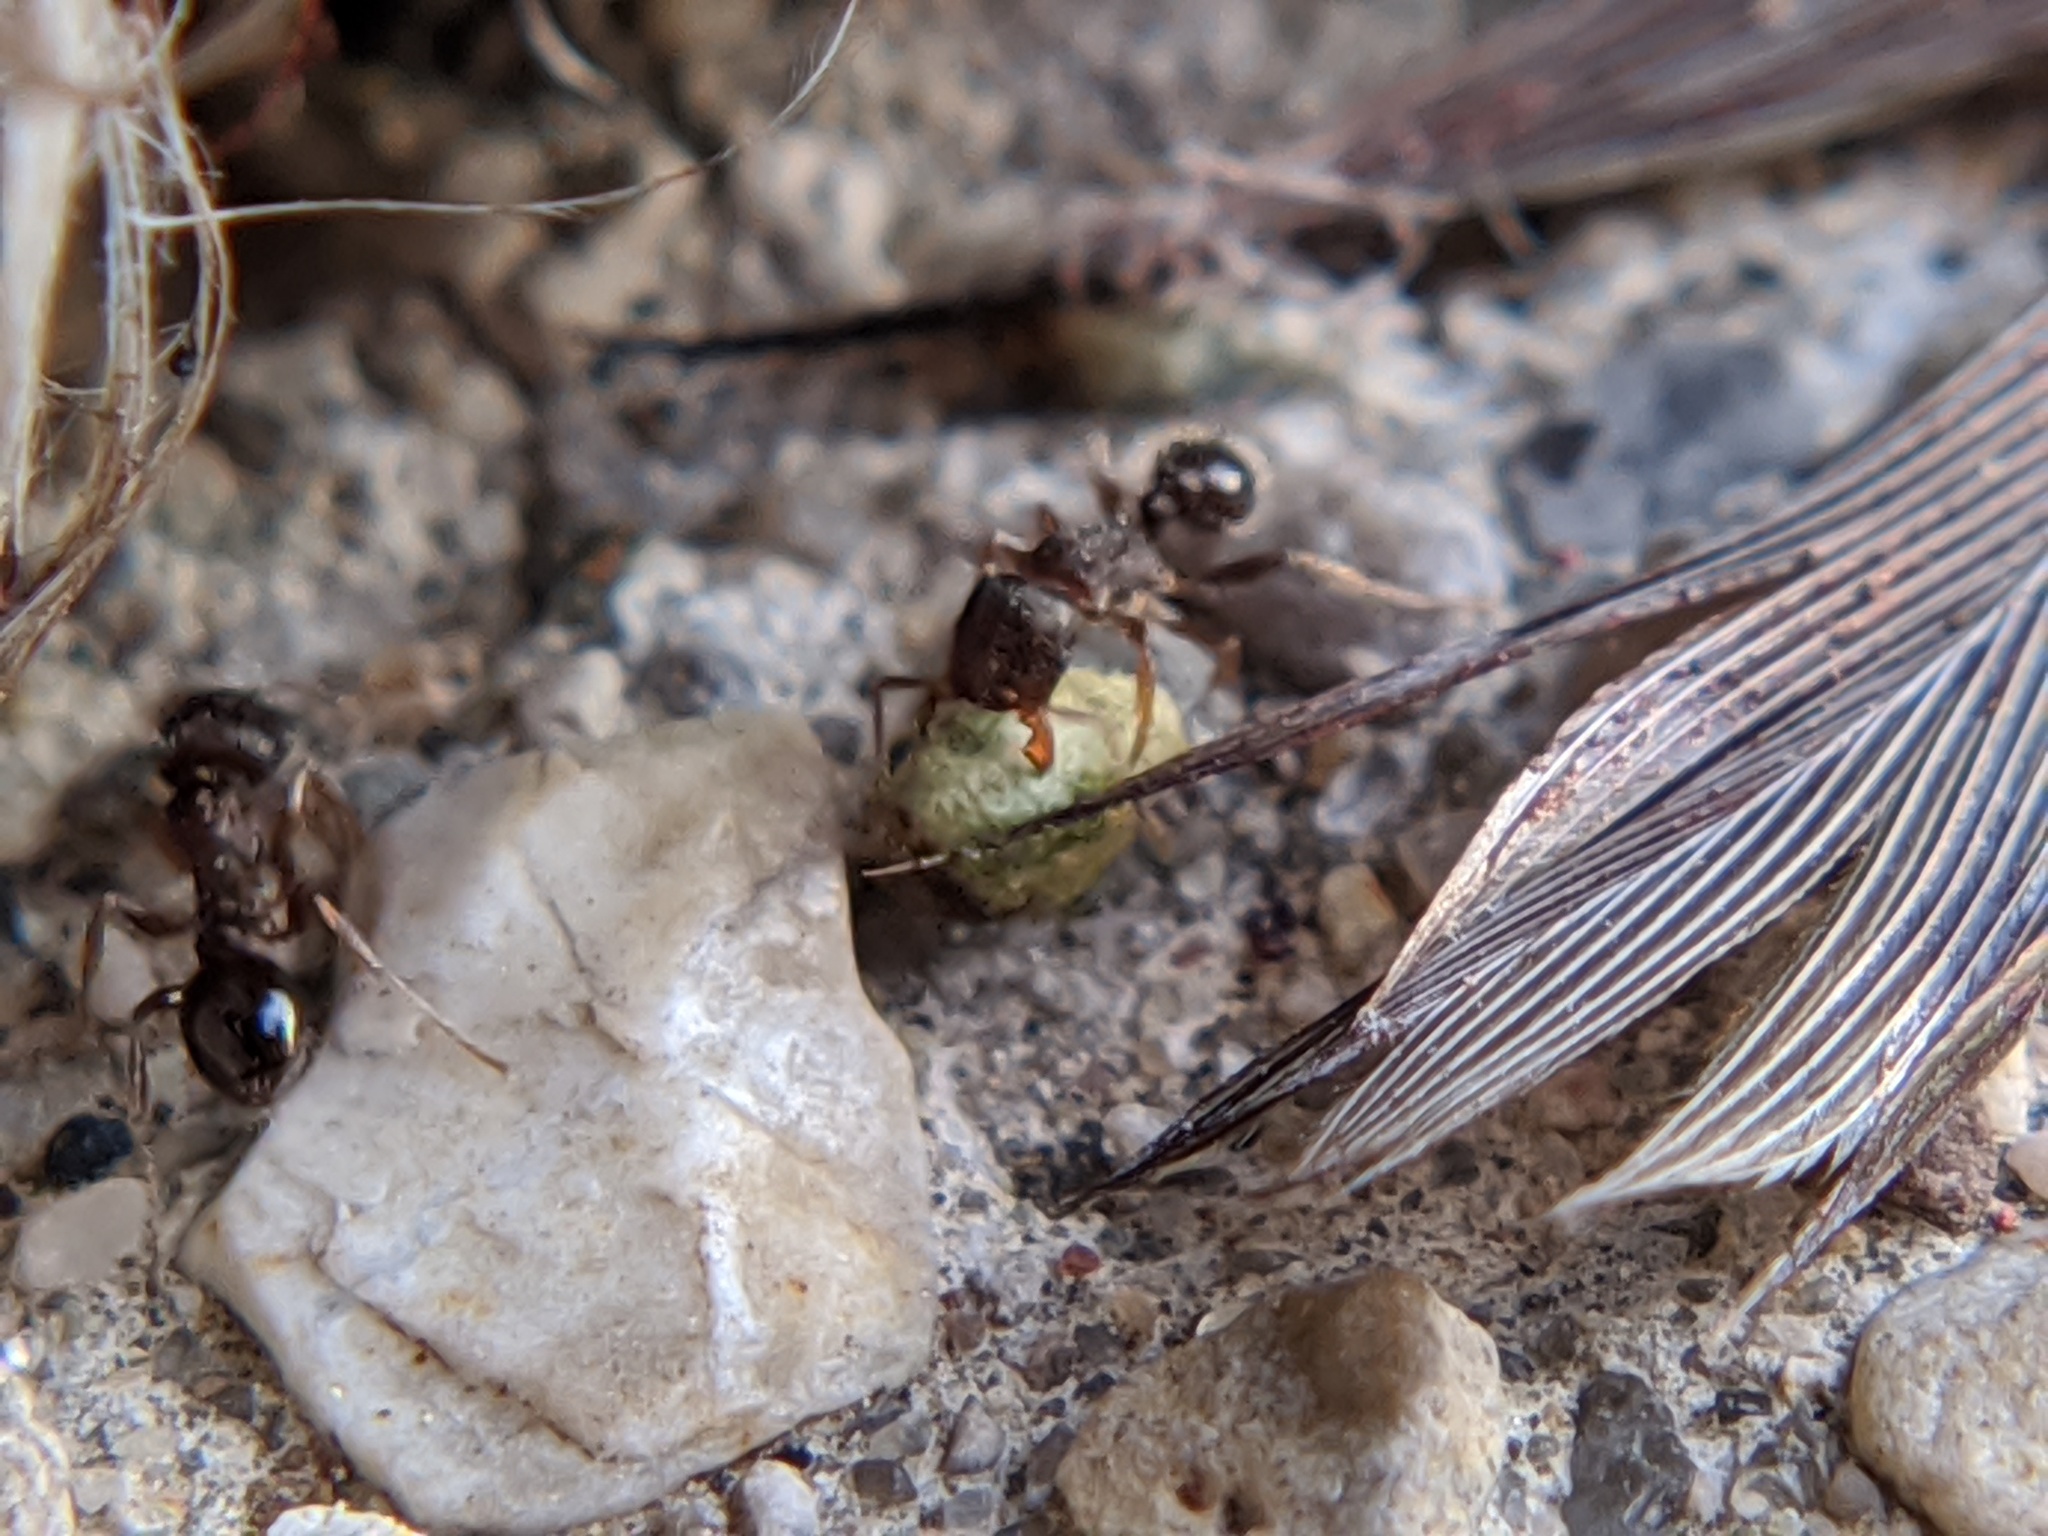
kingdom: Animalia
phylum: Arthropoda
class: Insecta
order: Hymenoptera
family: Formicidae
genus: Tetramorium
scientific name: Tetramorium immigrans
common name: Pavement ant
